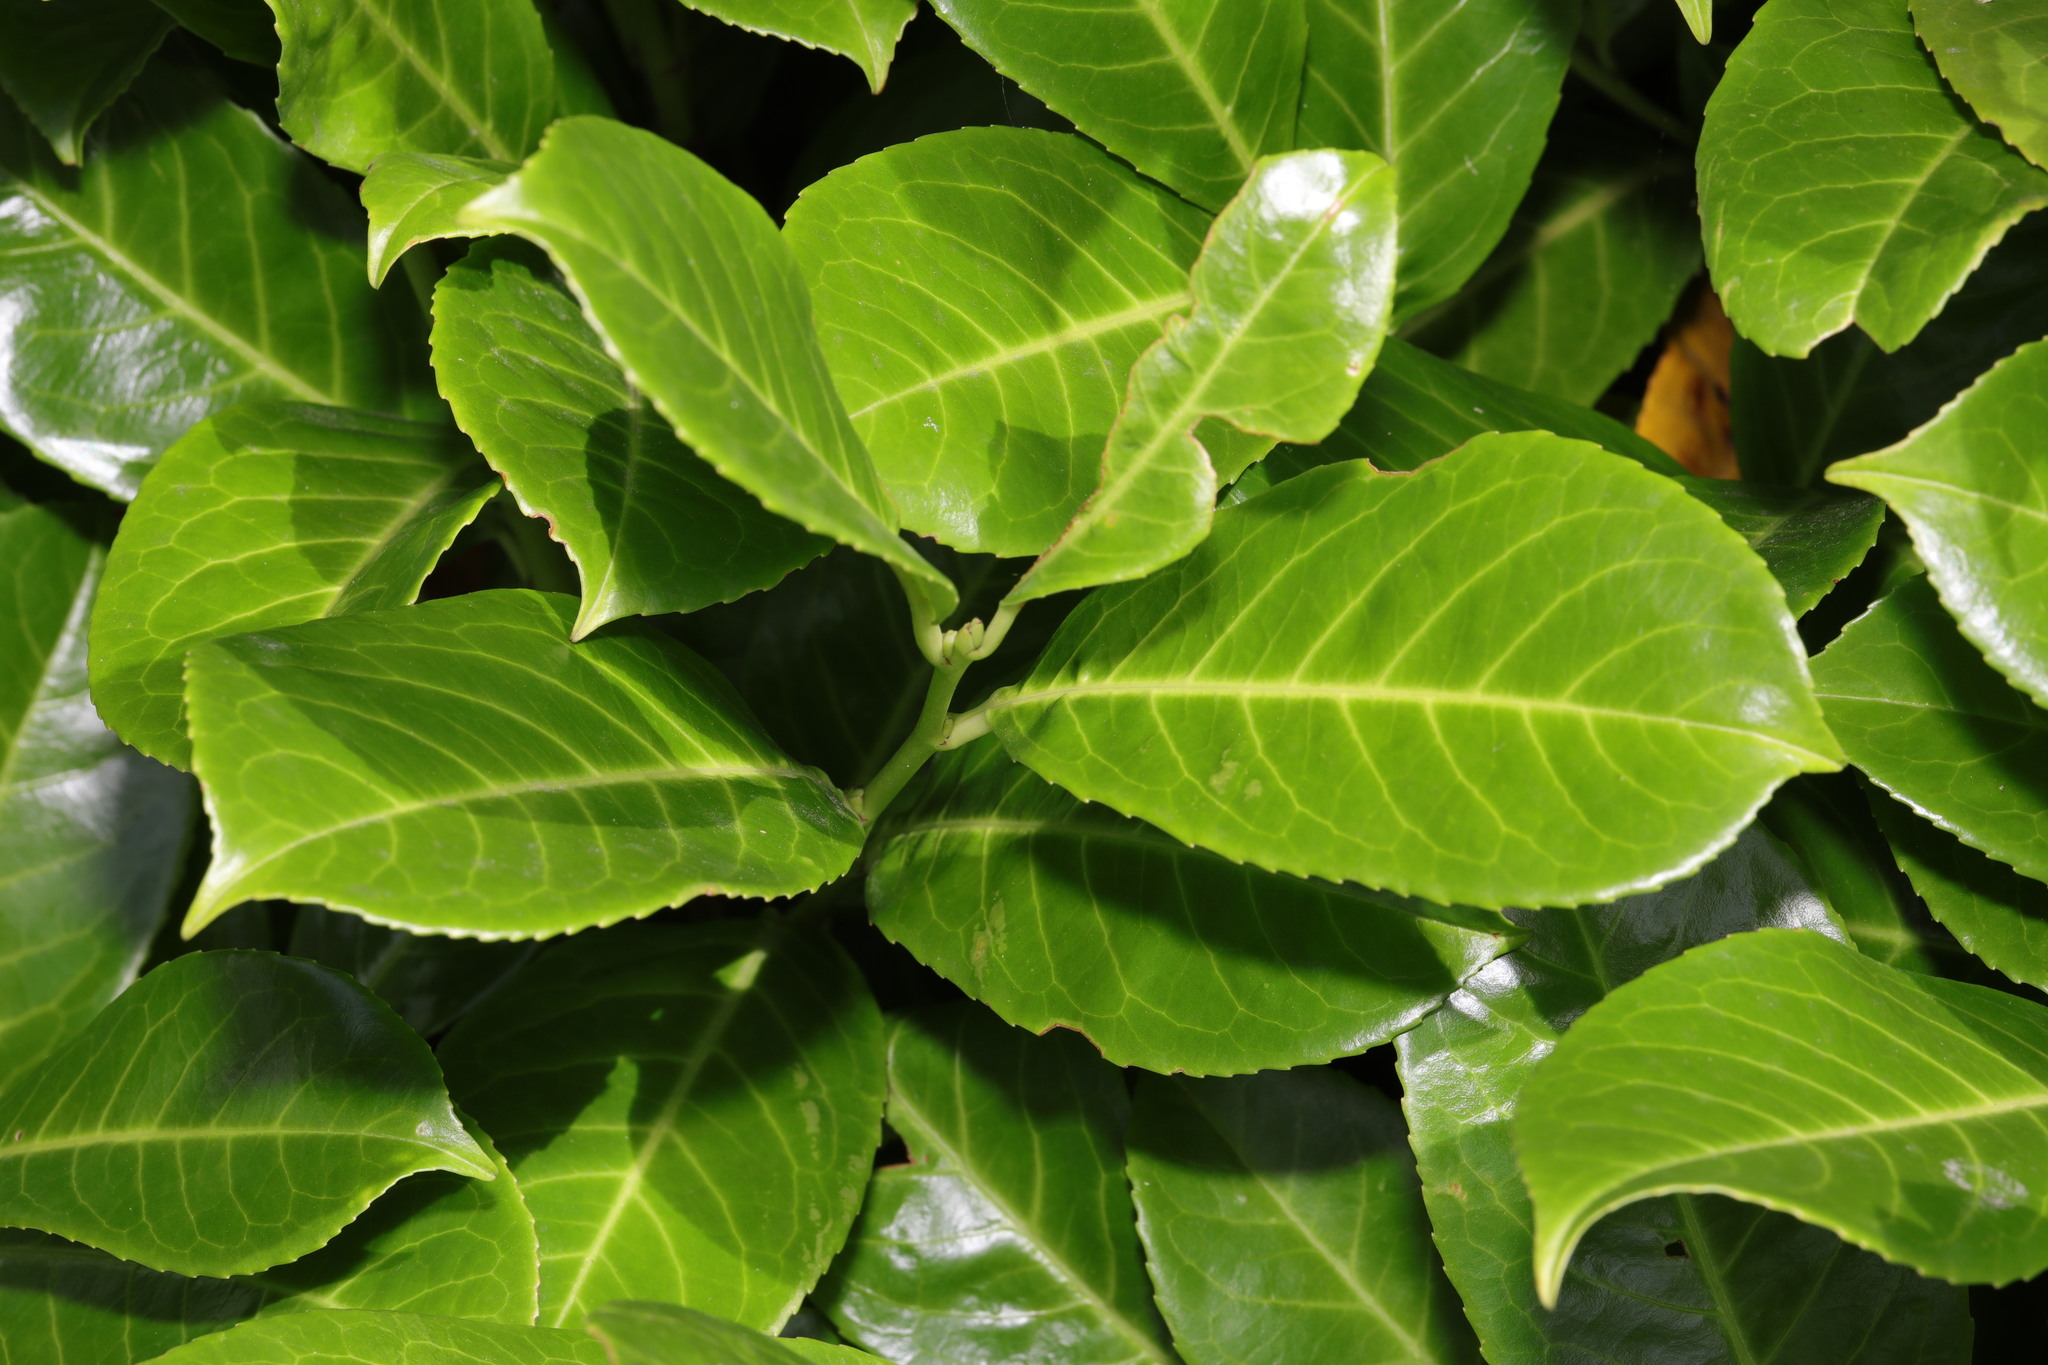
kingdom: Plantae
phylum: Tracheophyta
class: Magnoliopsida
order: Rosales
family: Rosaceae
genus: Prunus
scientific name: Prunus laurocerasus
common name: Cherry laurel
